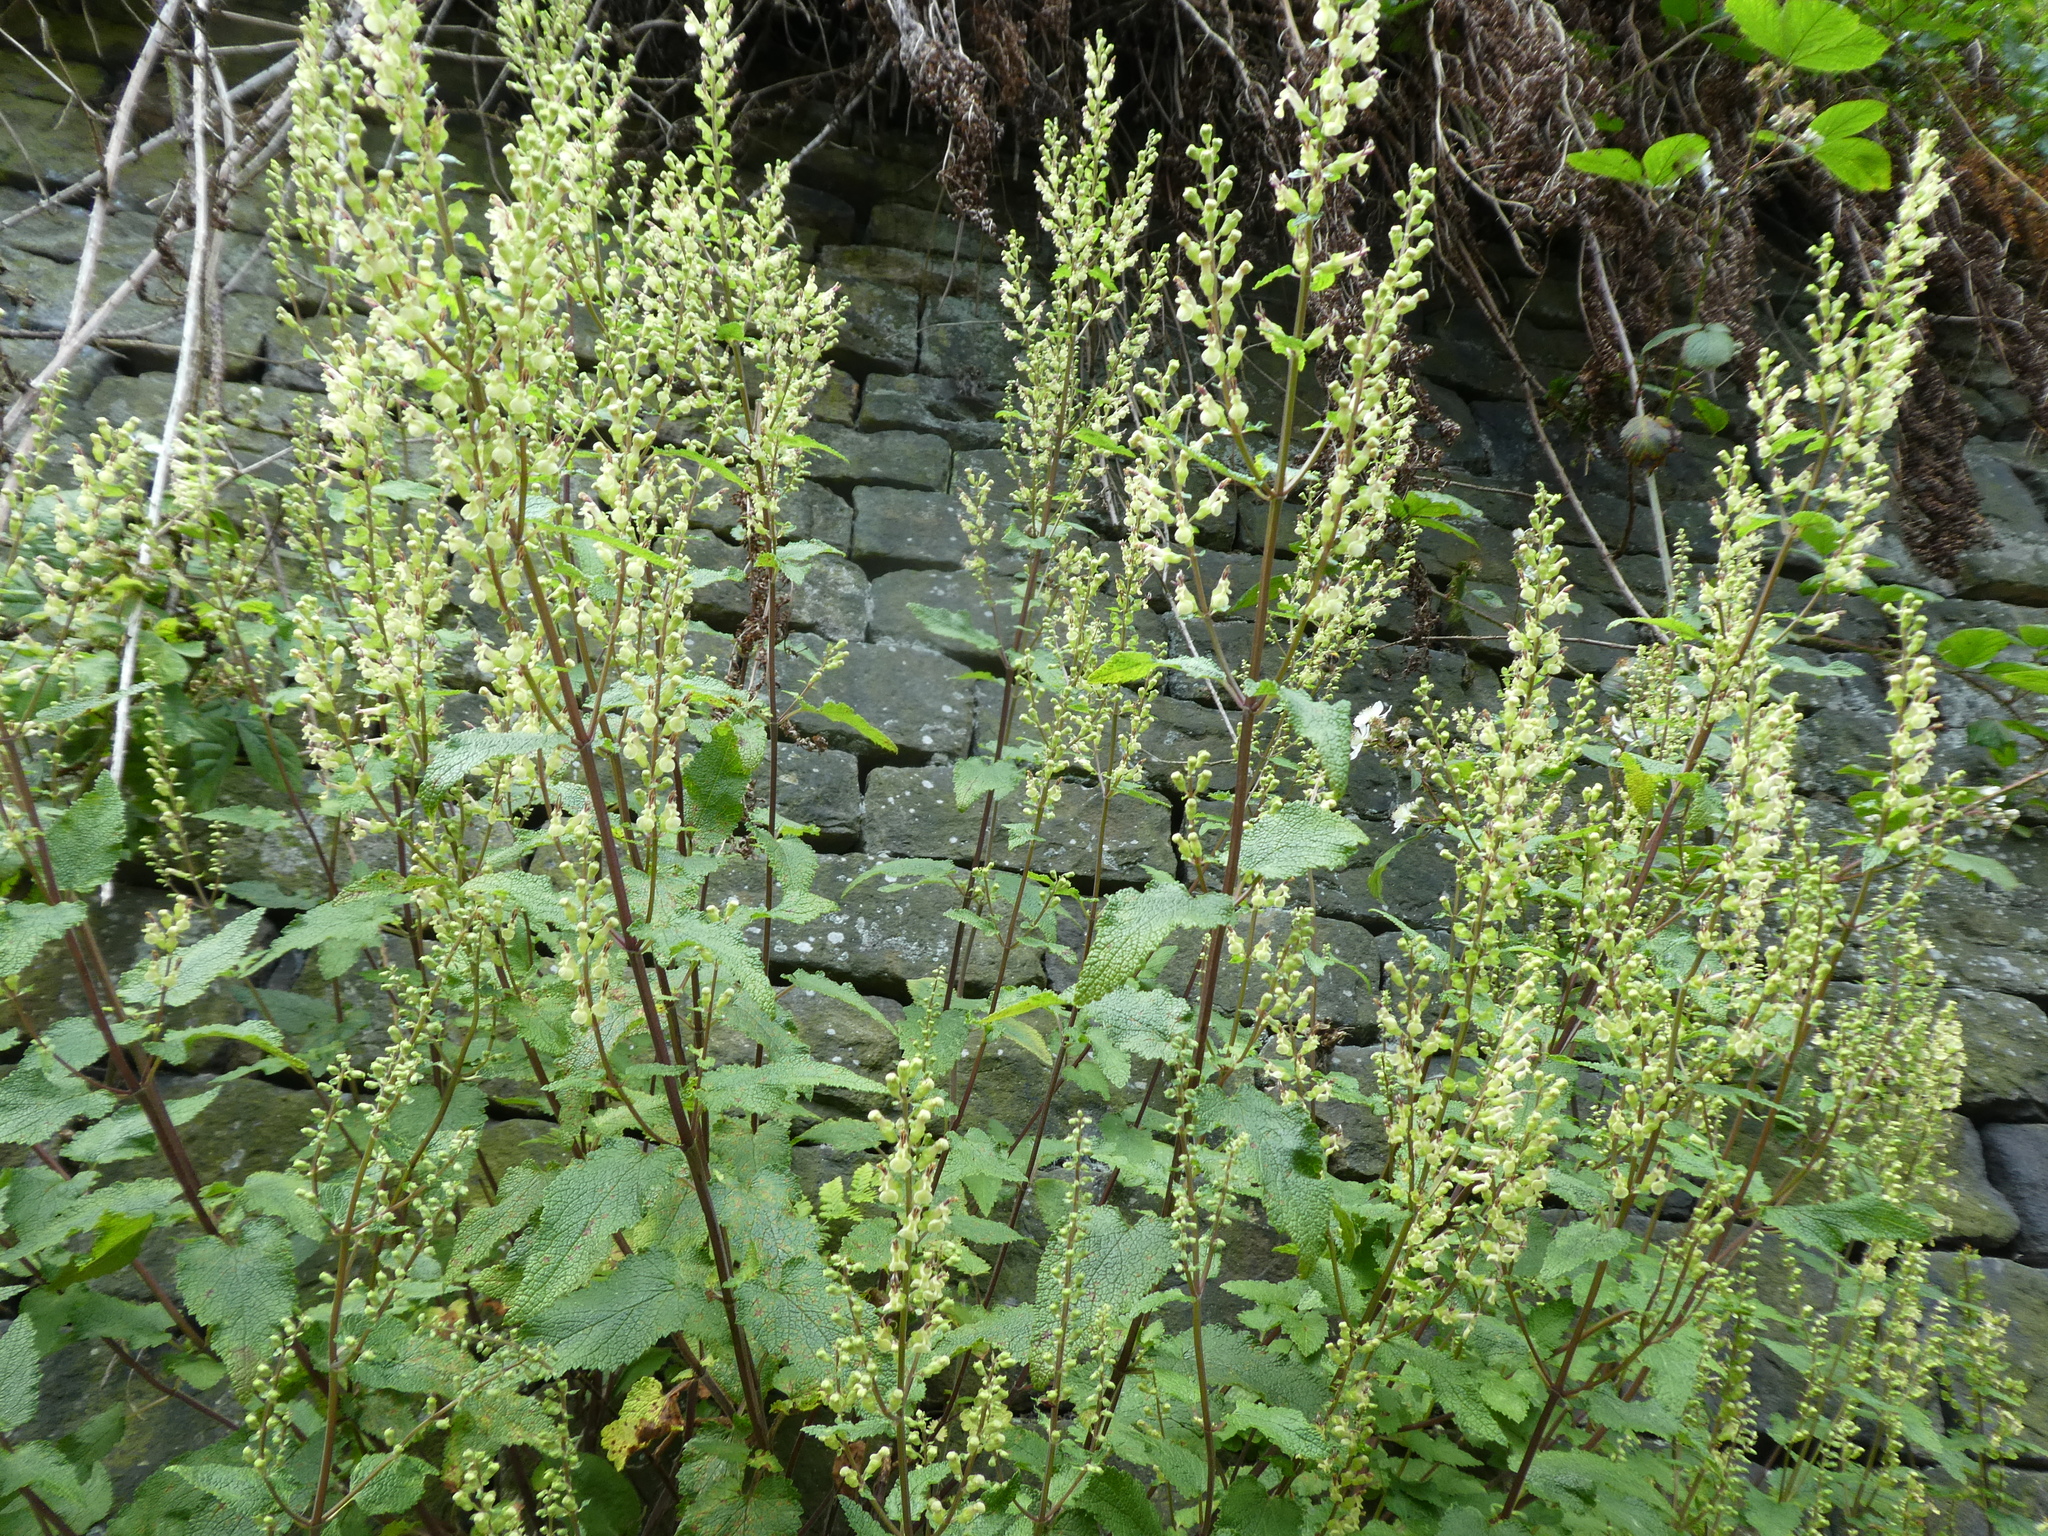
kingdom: Plantae
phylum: Tracheophyta
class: Magnoliopsida
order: Lamiales
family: Lamiaceae
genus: Teucrium
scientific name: Teucrium scorodonia
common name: Woodland germander
